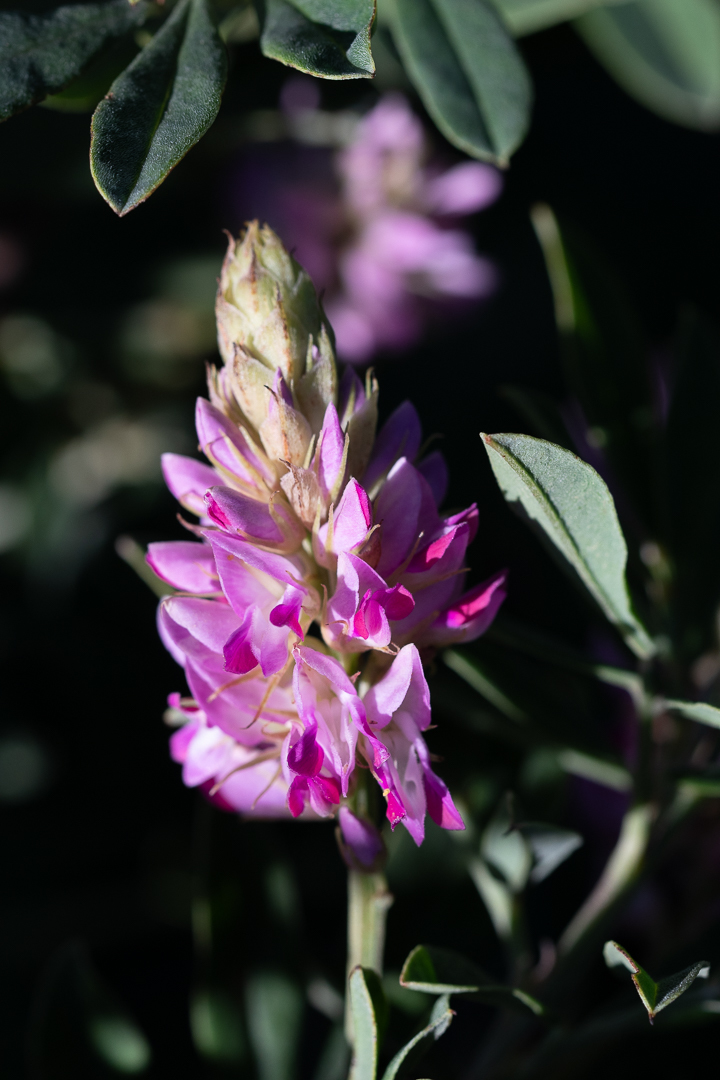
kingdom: Plantae
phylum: Tracheophyta
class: Magnoliopsida
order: Fabales
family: Fabaceae
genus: Indigofera
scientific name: Indigofera cytisoides
